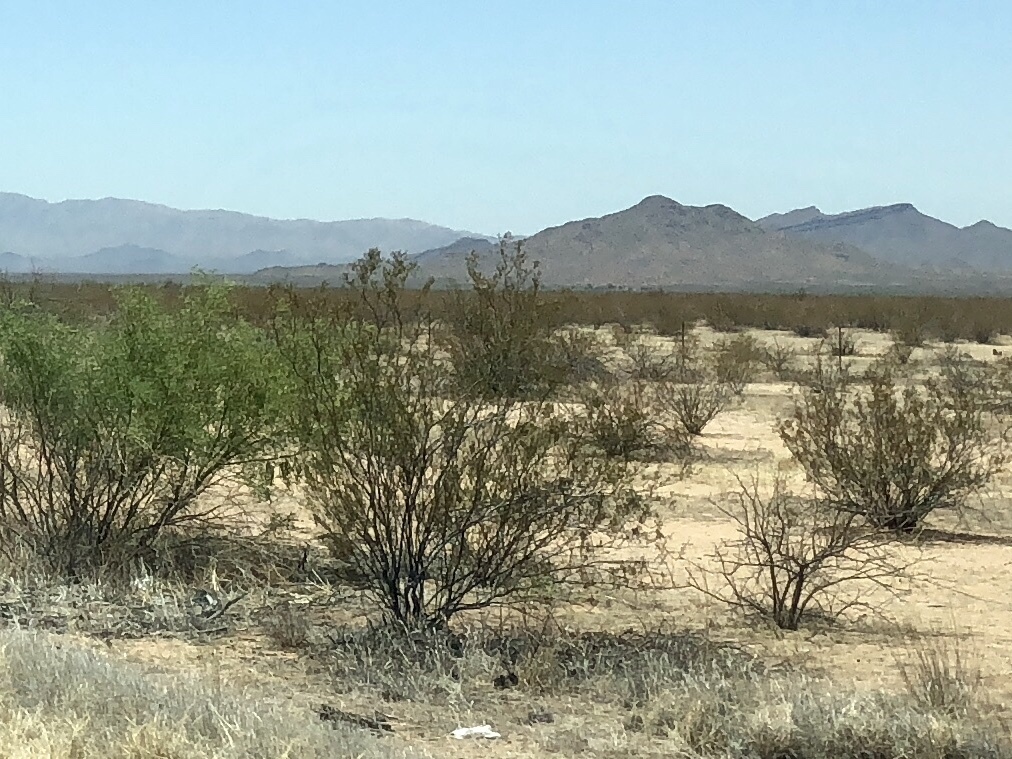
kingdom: Plantae
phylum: Tracheophyta
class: Magnoliopsida
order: Zygophyllales
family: Zygophyllaceae
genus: Larrea
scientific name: Larrea tridentata
